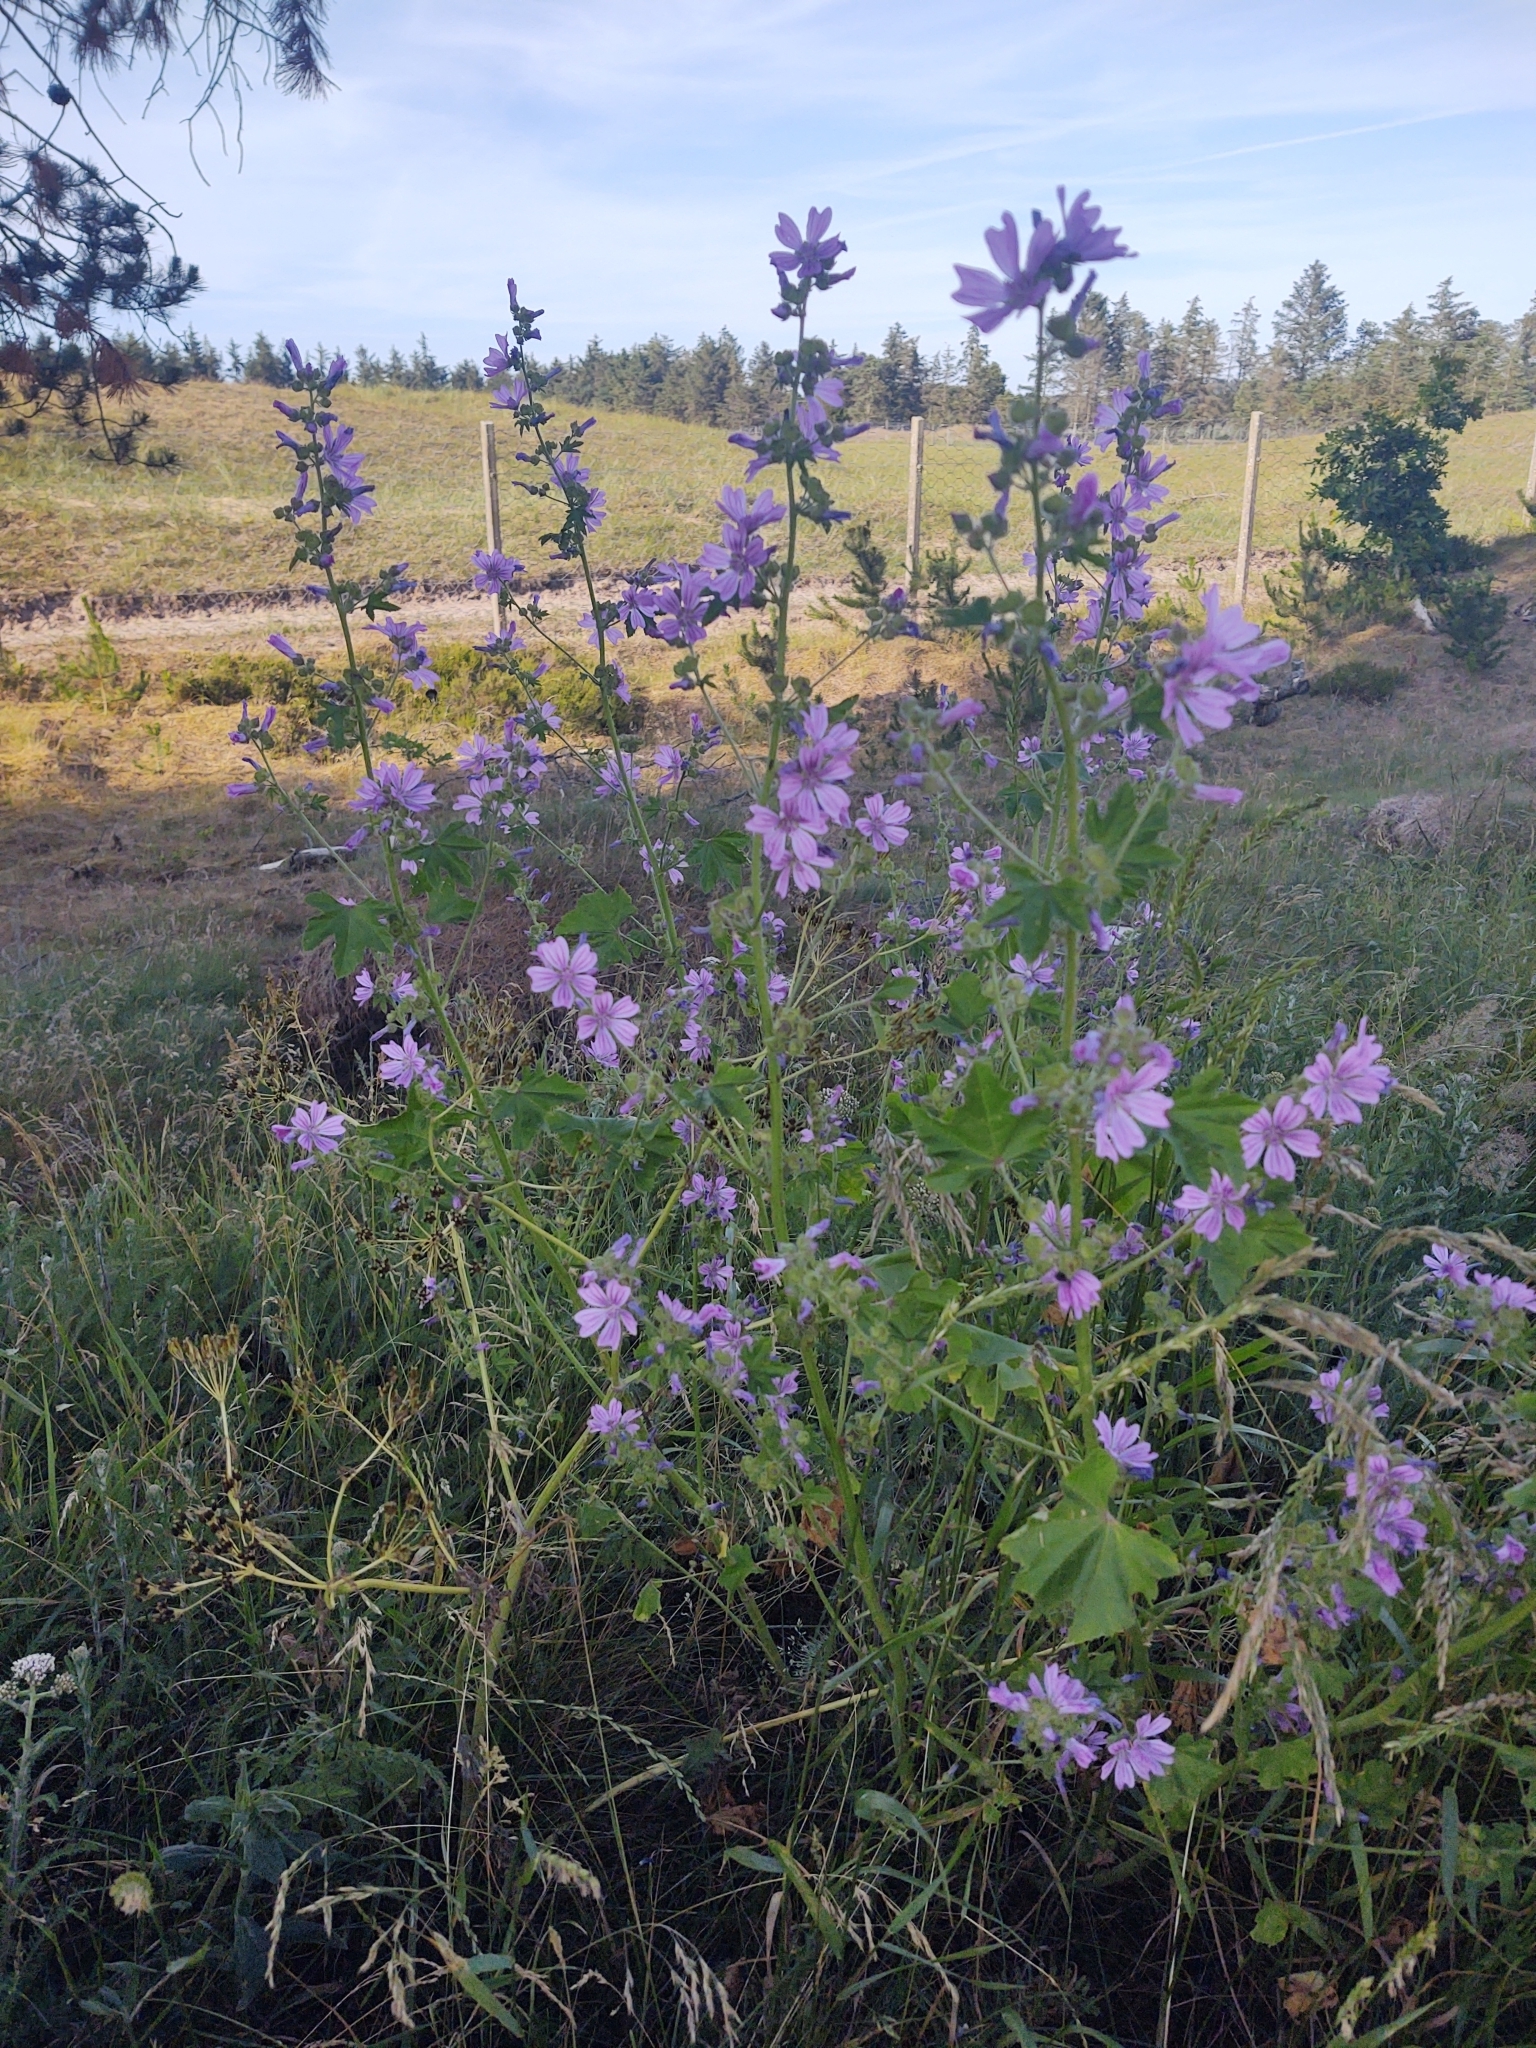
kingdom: Plantae
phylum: Tracheophyta
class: Magnoliopsida
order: Malvales
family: Malvaceae
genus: Malva
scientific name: Malva sylvestris
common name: Common mallow
